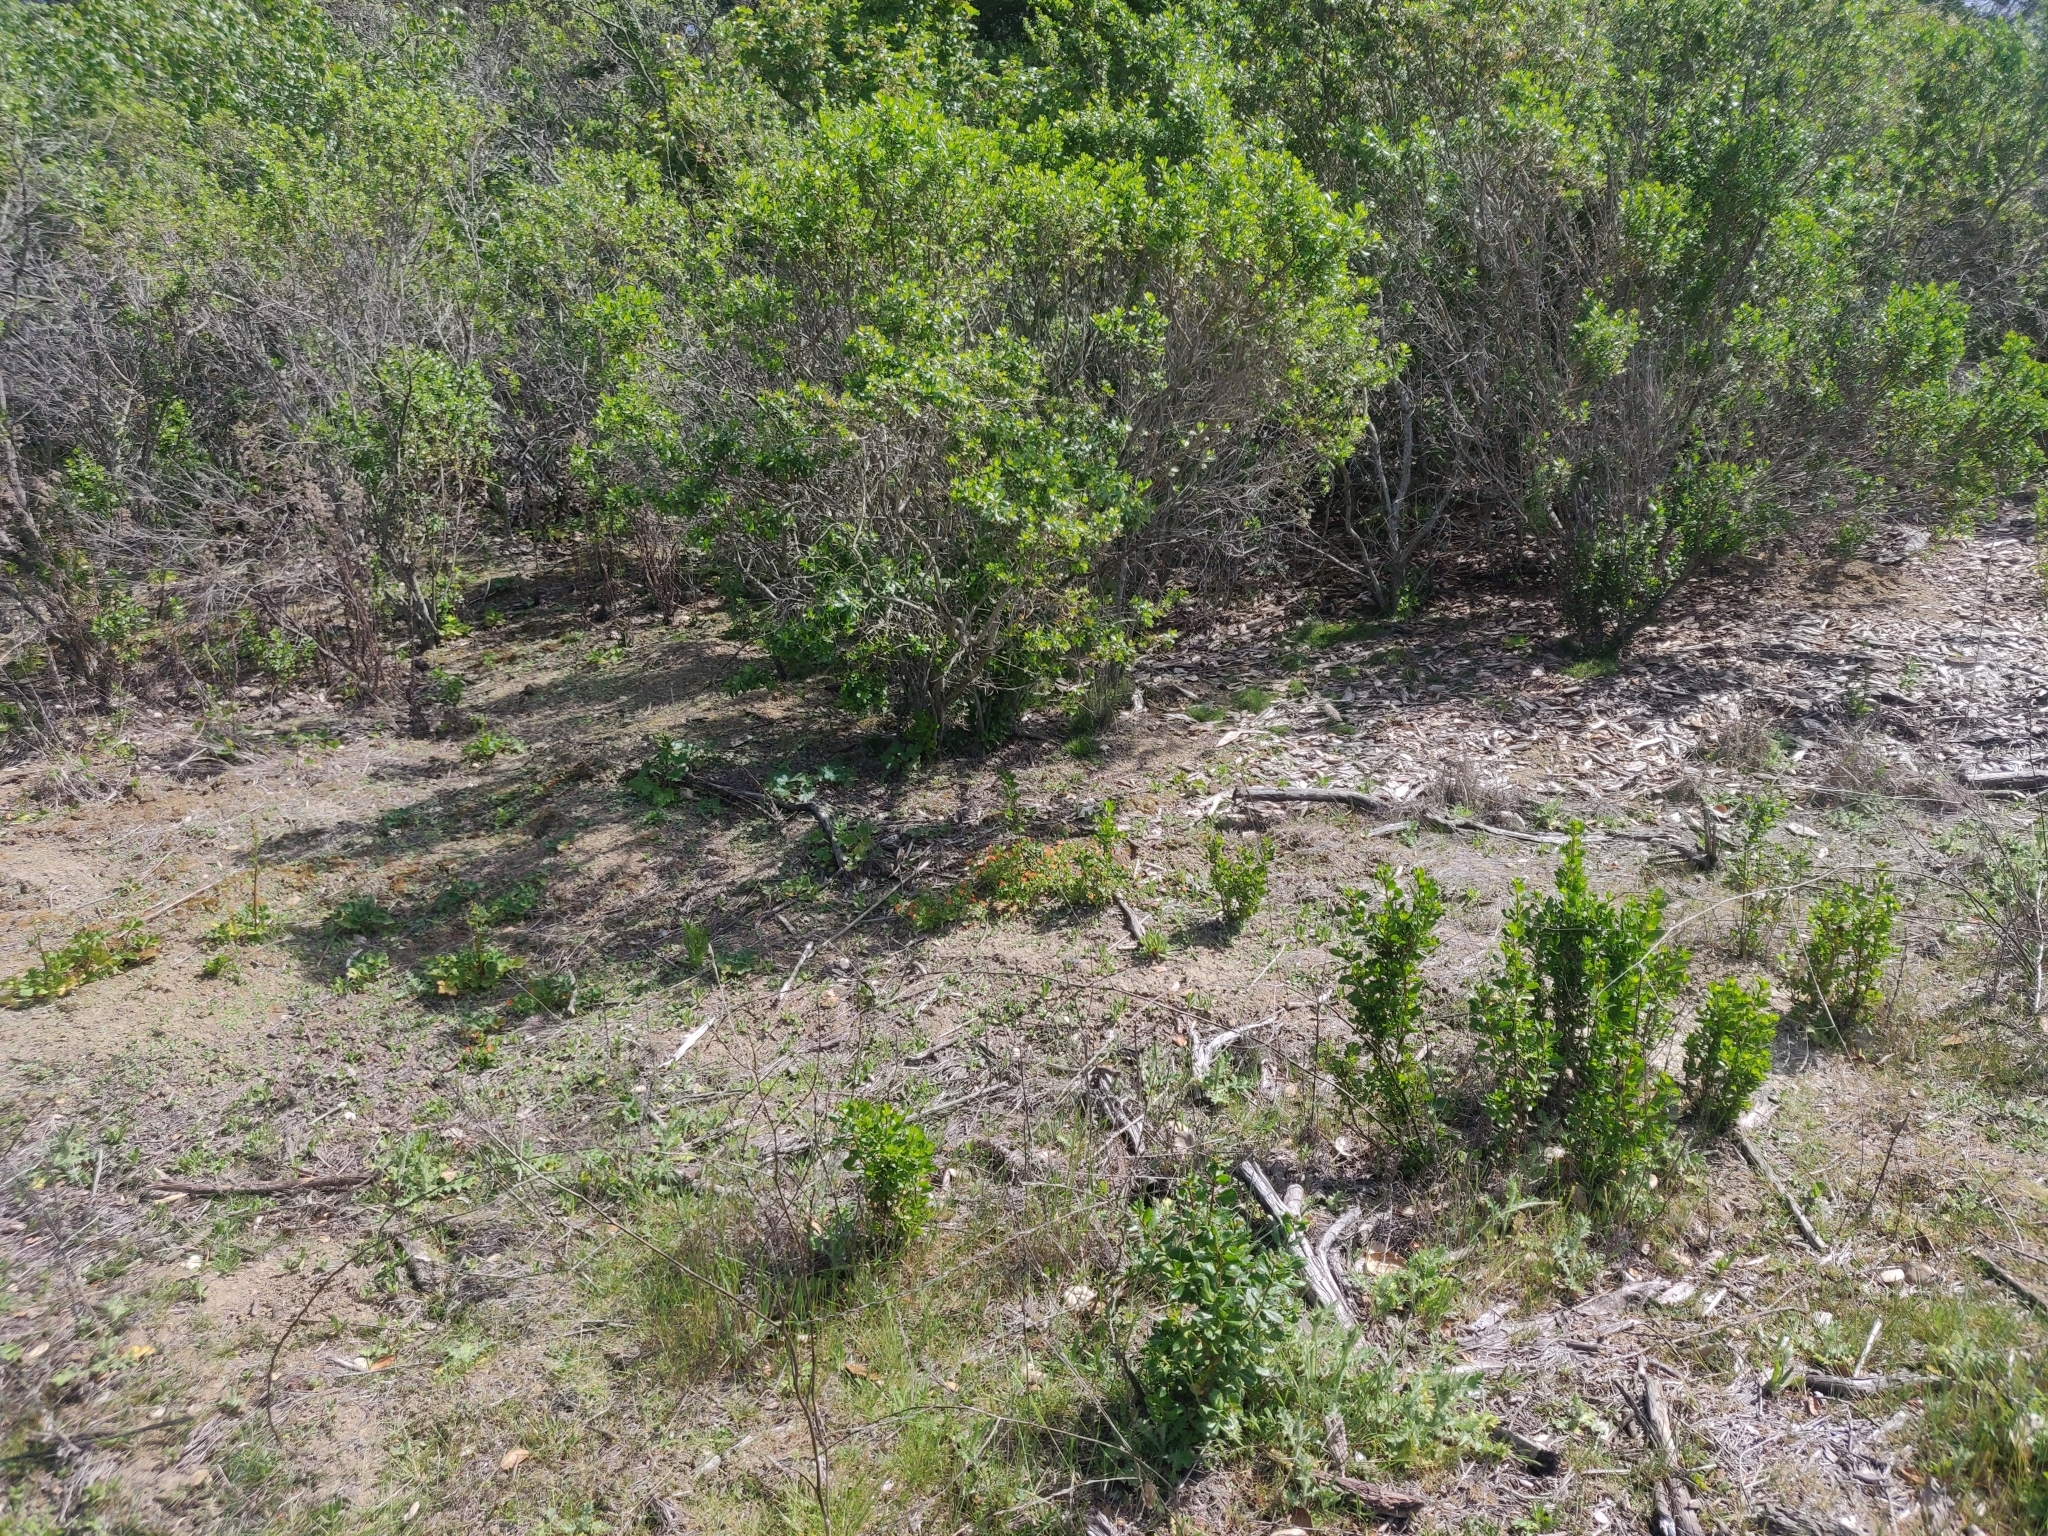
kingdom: Plantae
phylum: Tracheophyta
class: Magnoliopsida
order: Ericales
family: Primulaceae
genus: Lysimachia
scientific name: Lysimachia arvensis
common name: Scarlet pimpernel
